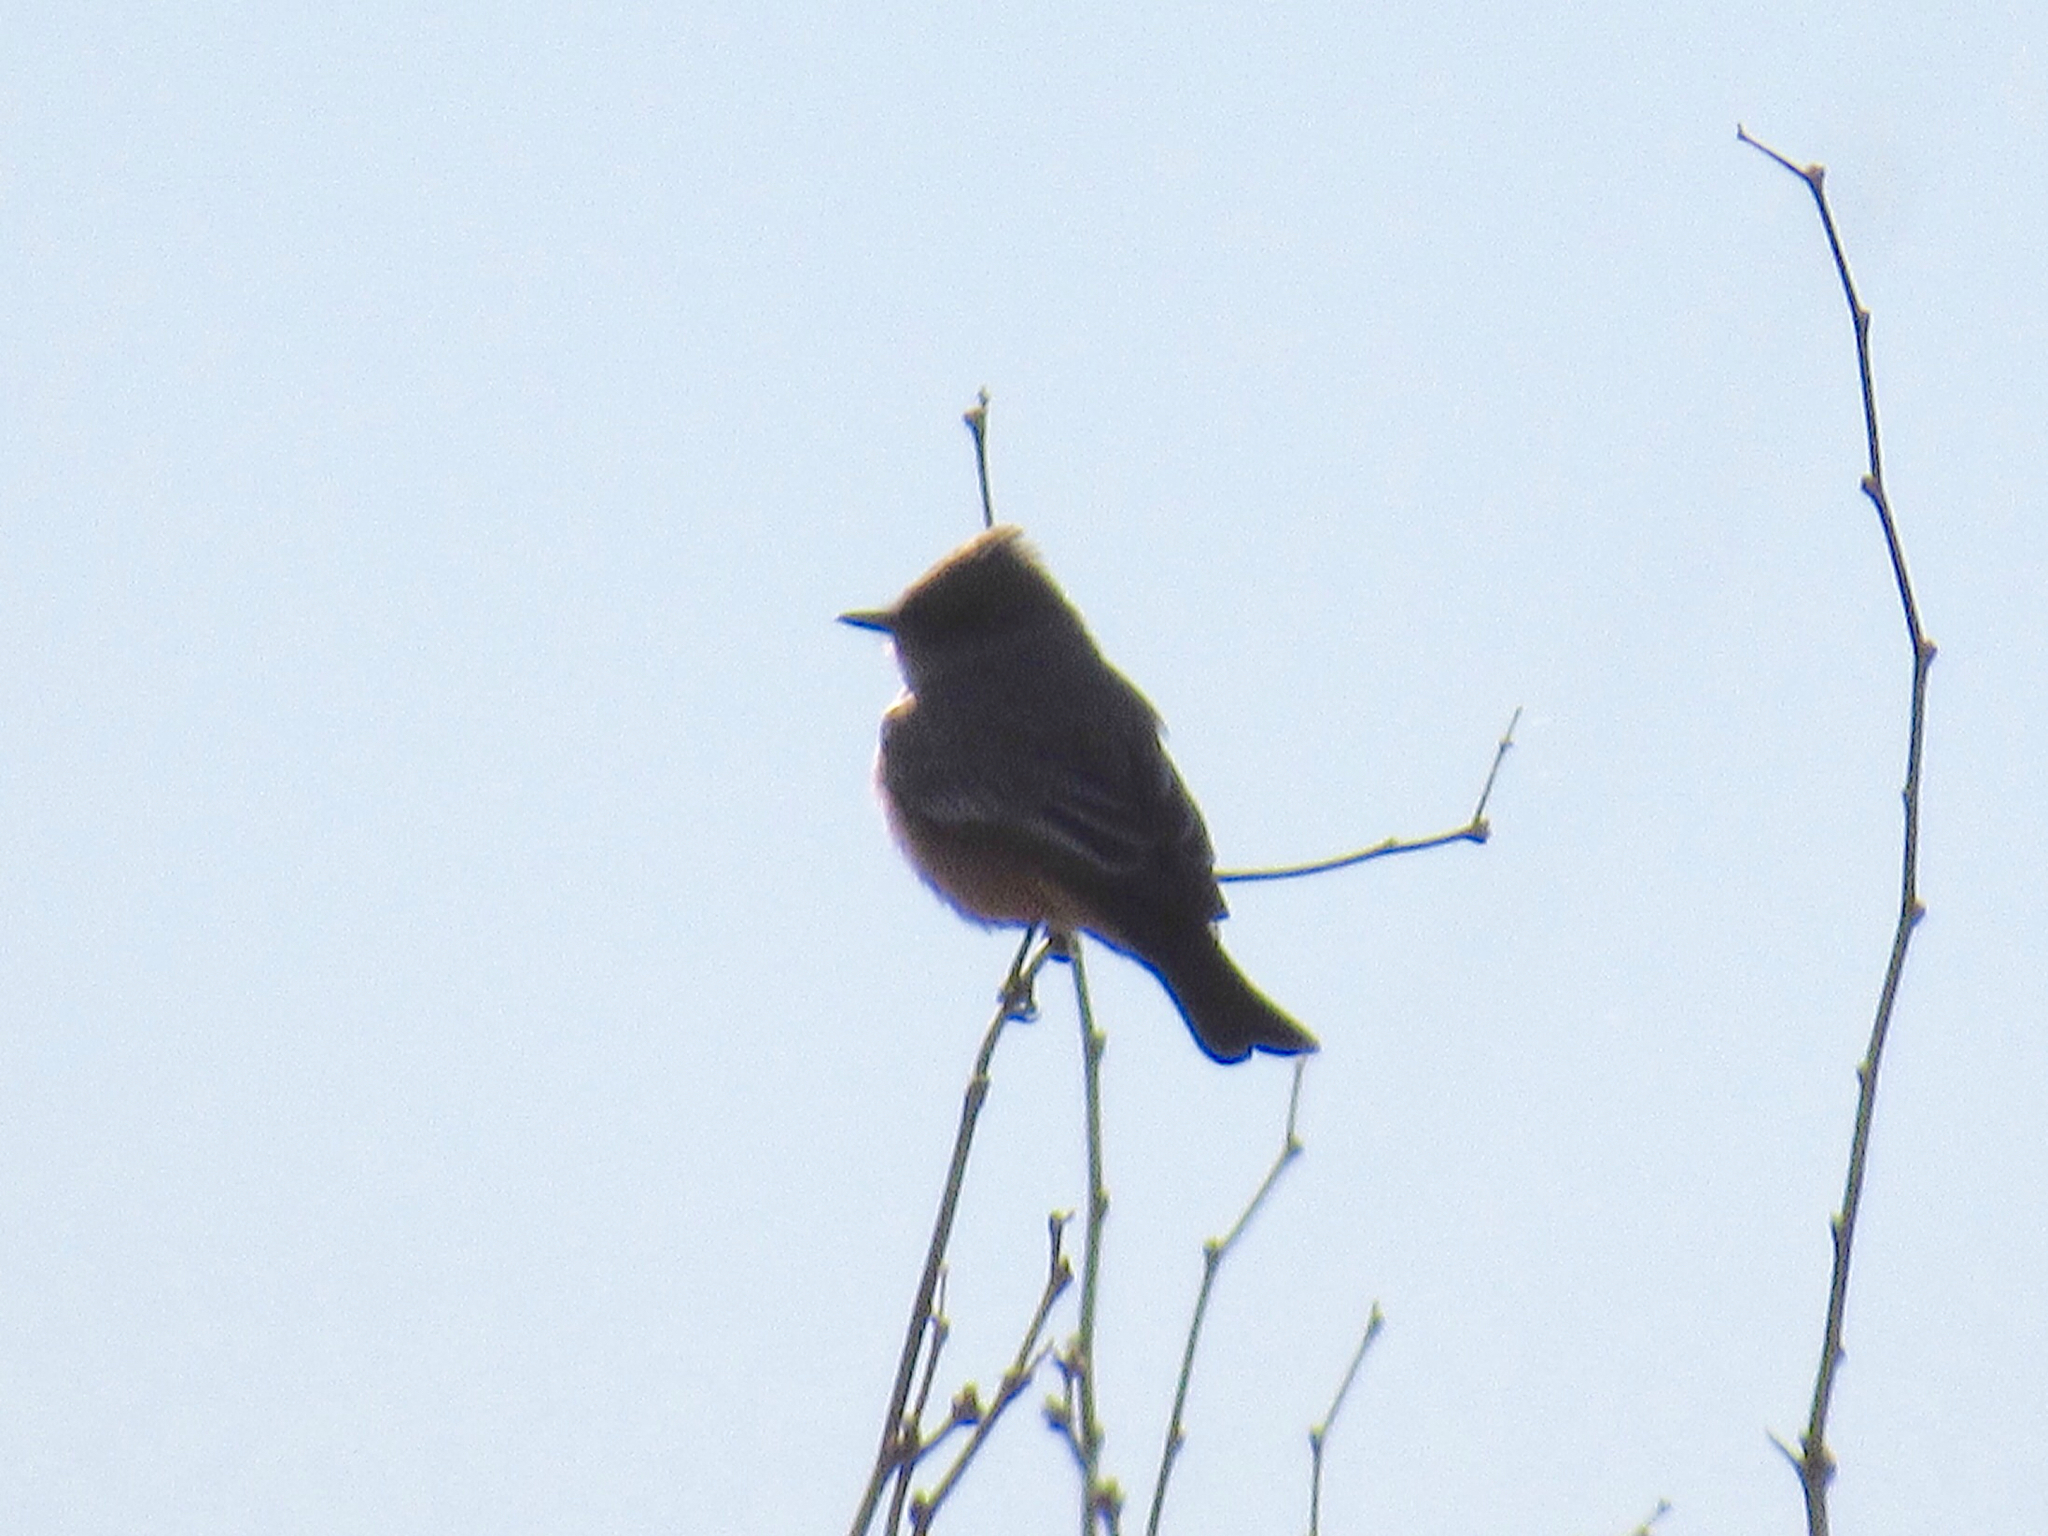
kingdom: Animalia
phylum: Chordata
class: Aves
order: Passeriformes
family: Tyrannidae
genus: Sayornis
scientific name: Sayornis saya
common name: Say's phoebe
